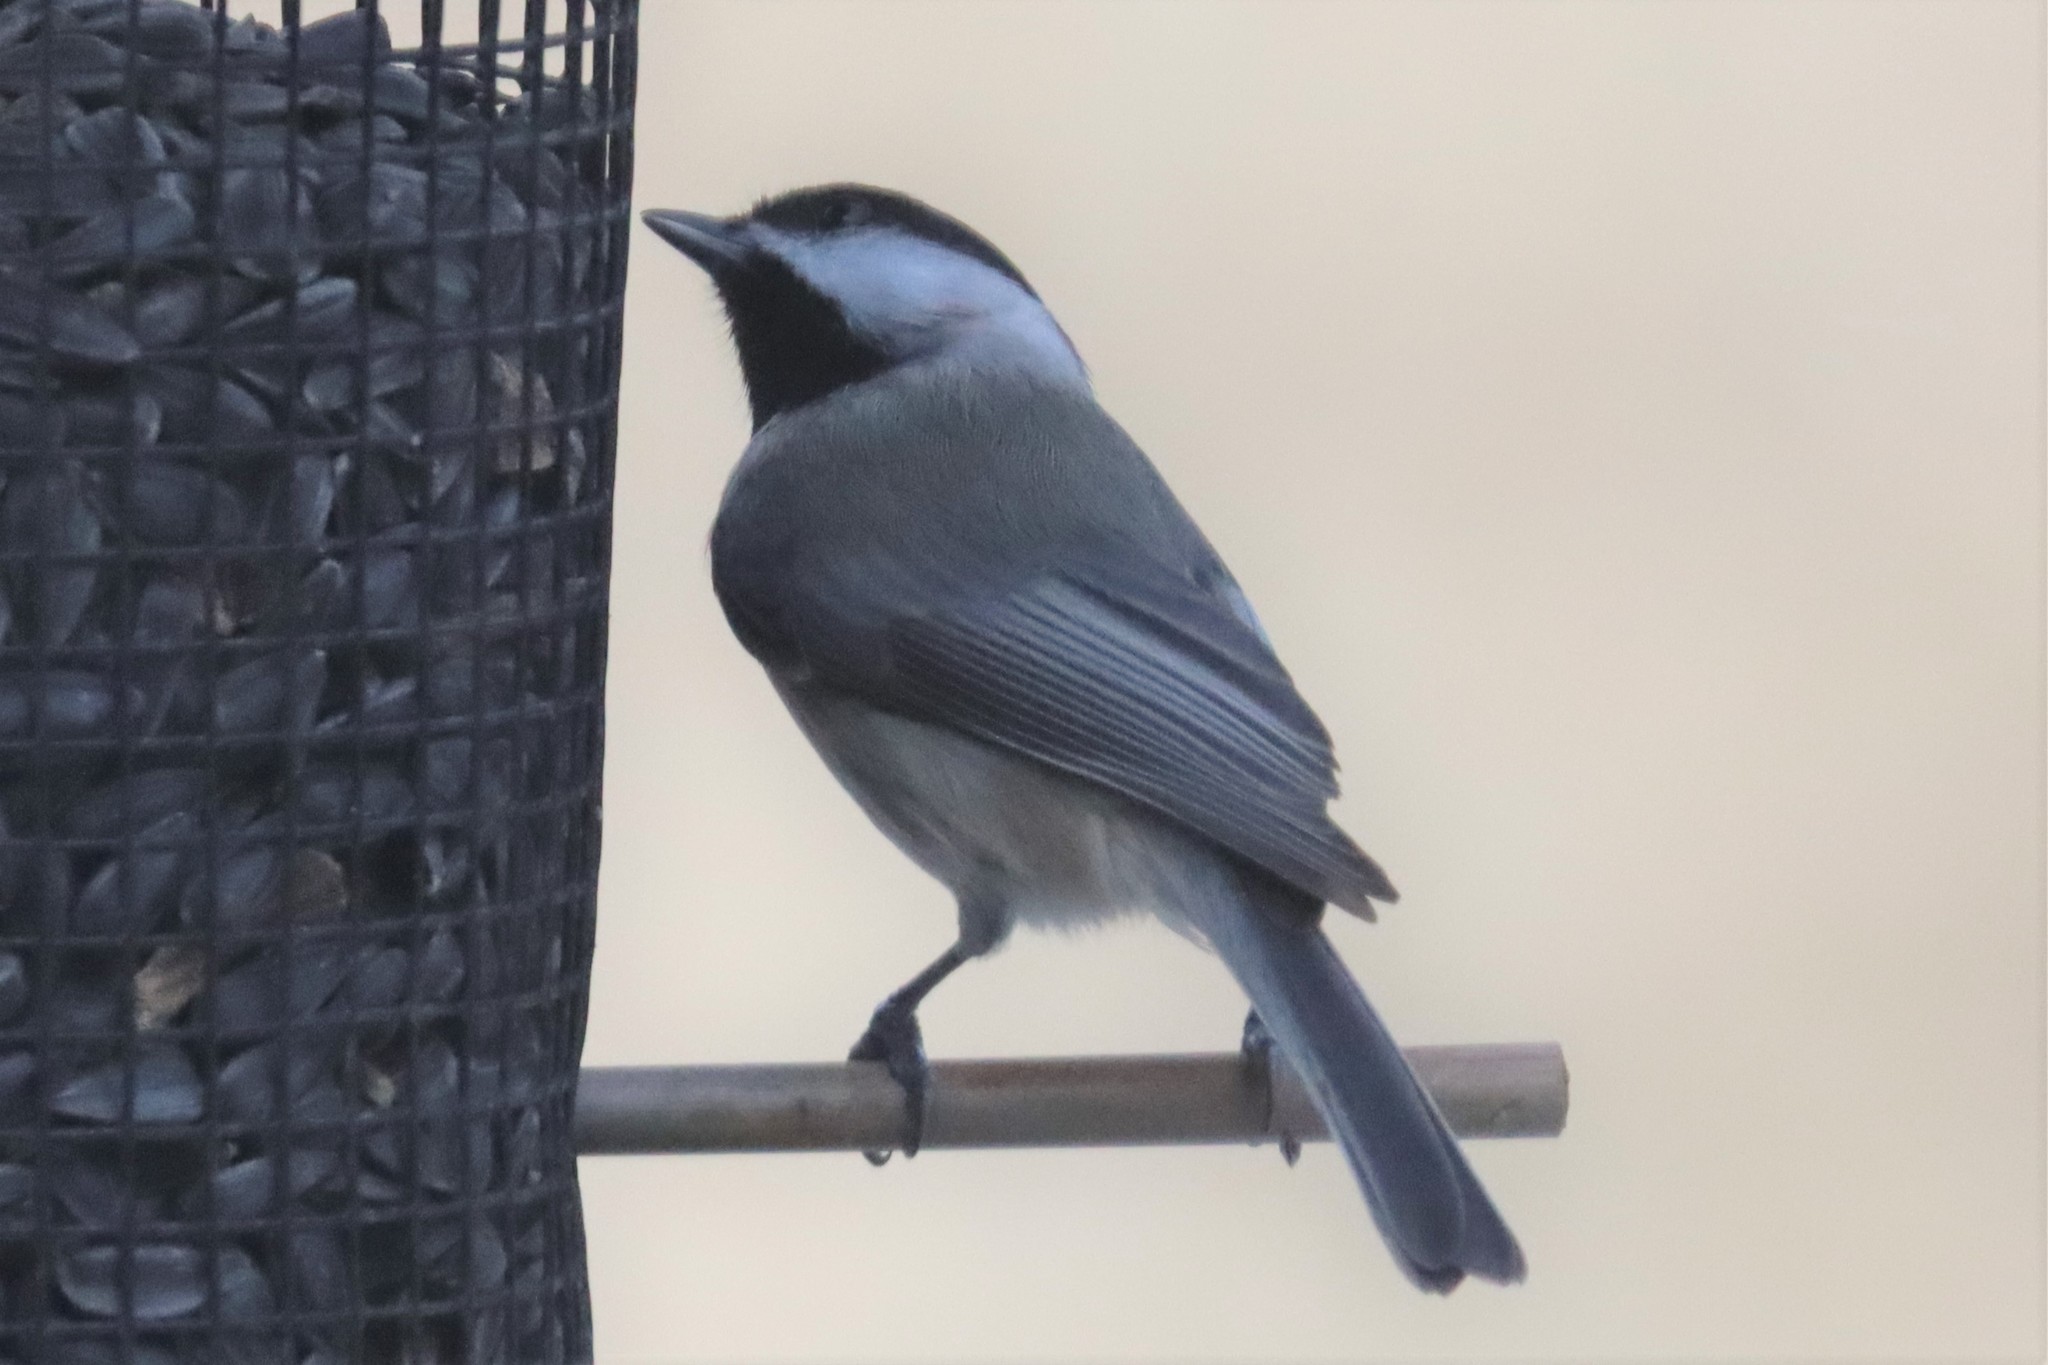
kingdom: Animalia
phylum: Chordata
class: Aves
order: Passeriformes
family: Paridae
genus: Poecile
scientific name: Poecile carolinensis
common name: Carolina chickadee
